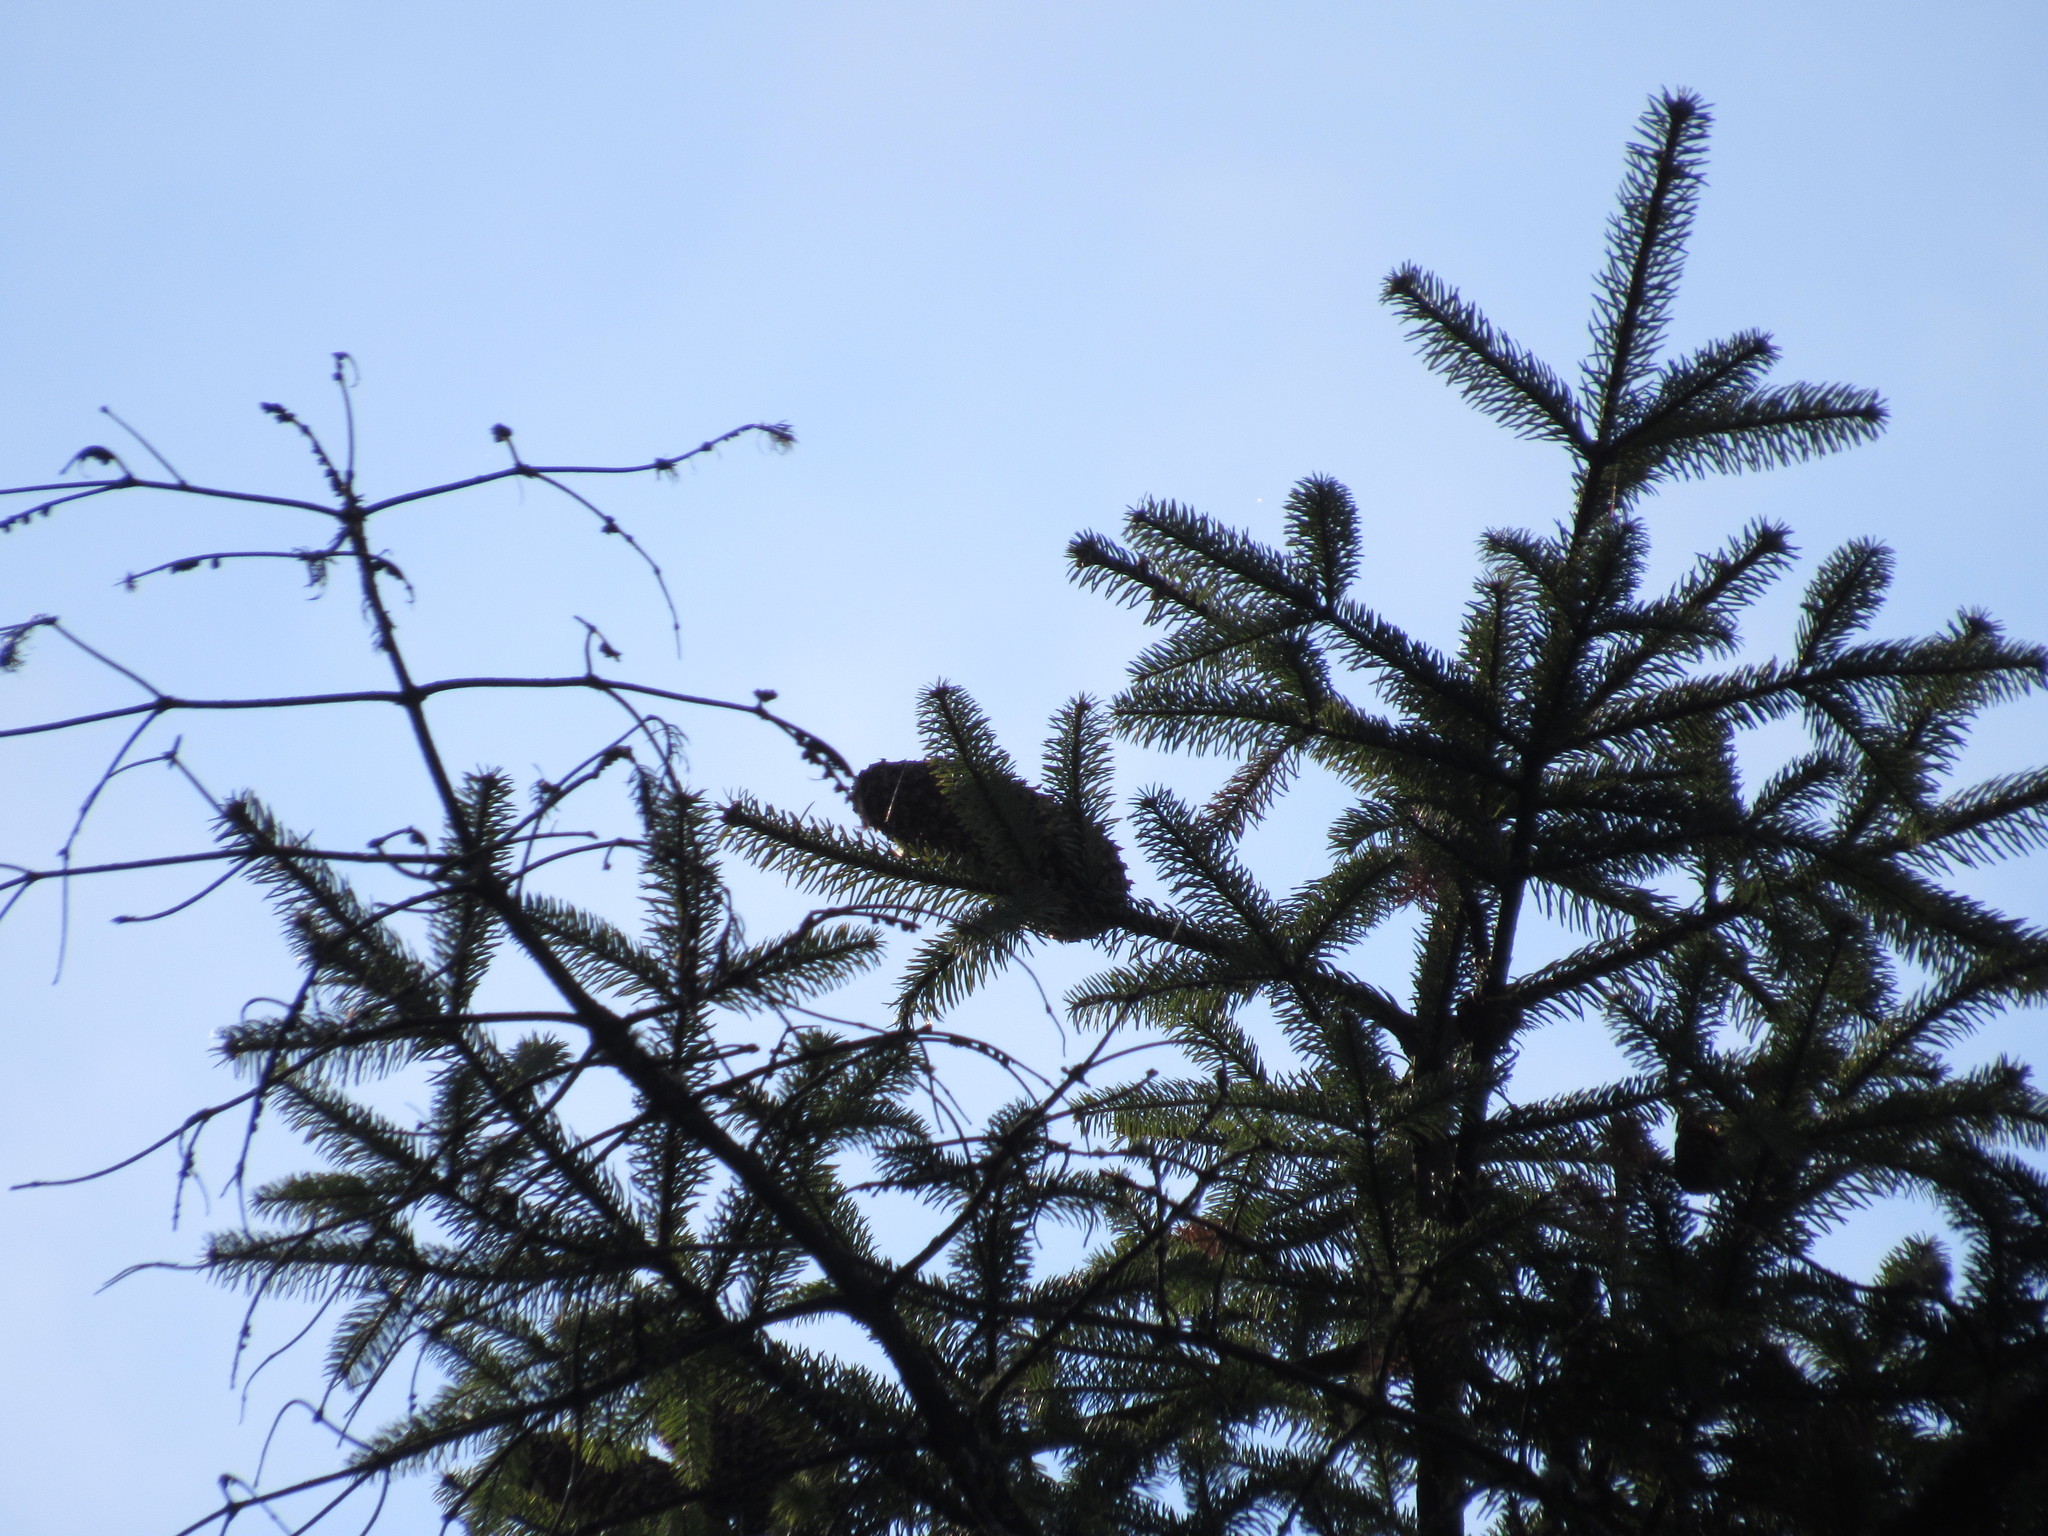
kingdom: Plantae
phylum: Tracheophyta
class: Pinopsida
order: Pinales
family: Pinaceae
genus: Abies
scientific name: Abies religiosa
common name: Sacred fir
